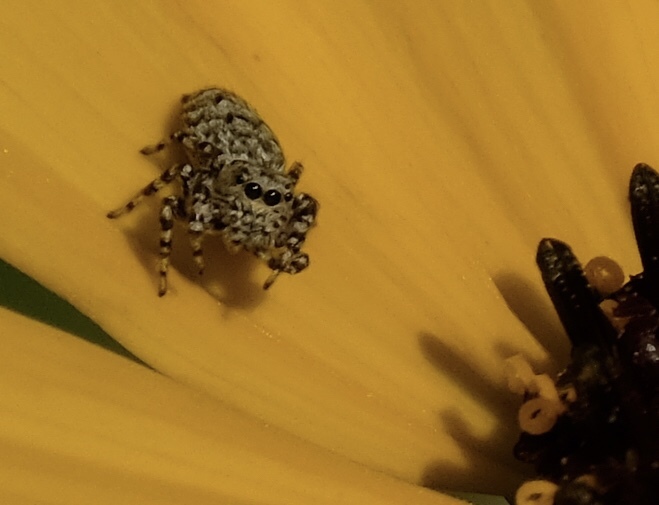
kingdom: Animalia
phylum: Arthropoda
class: Arachnida
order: Araneae
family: Salticidae
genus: Pelegrina
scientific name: Pelegrina galathea
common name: Jumping spiders
